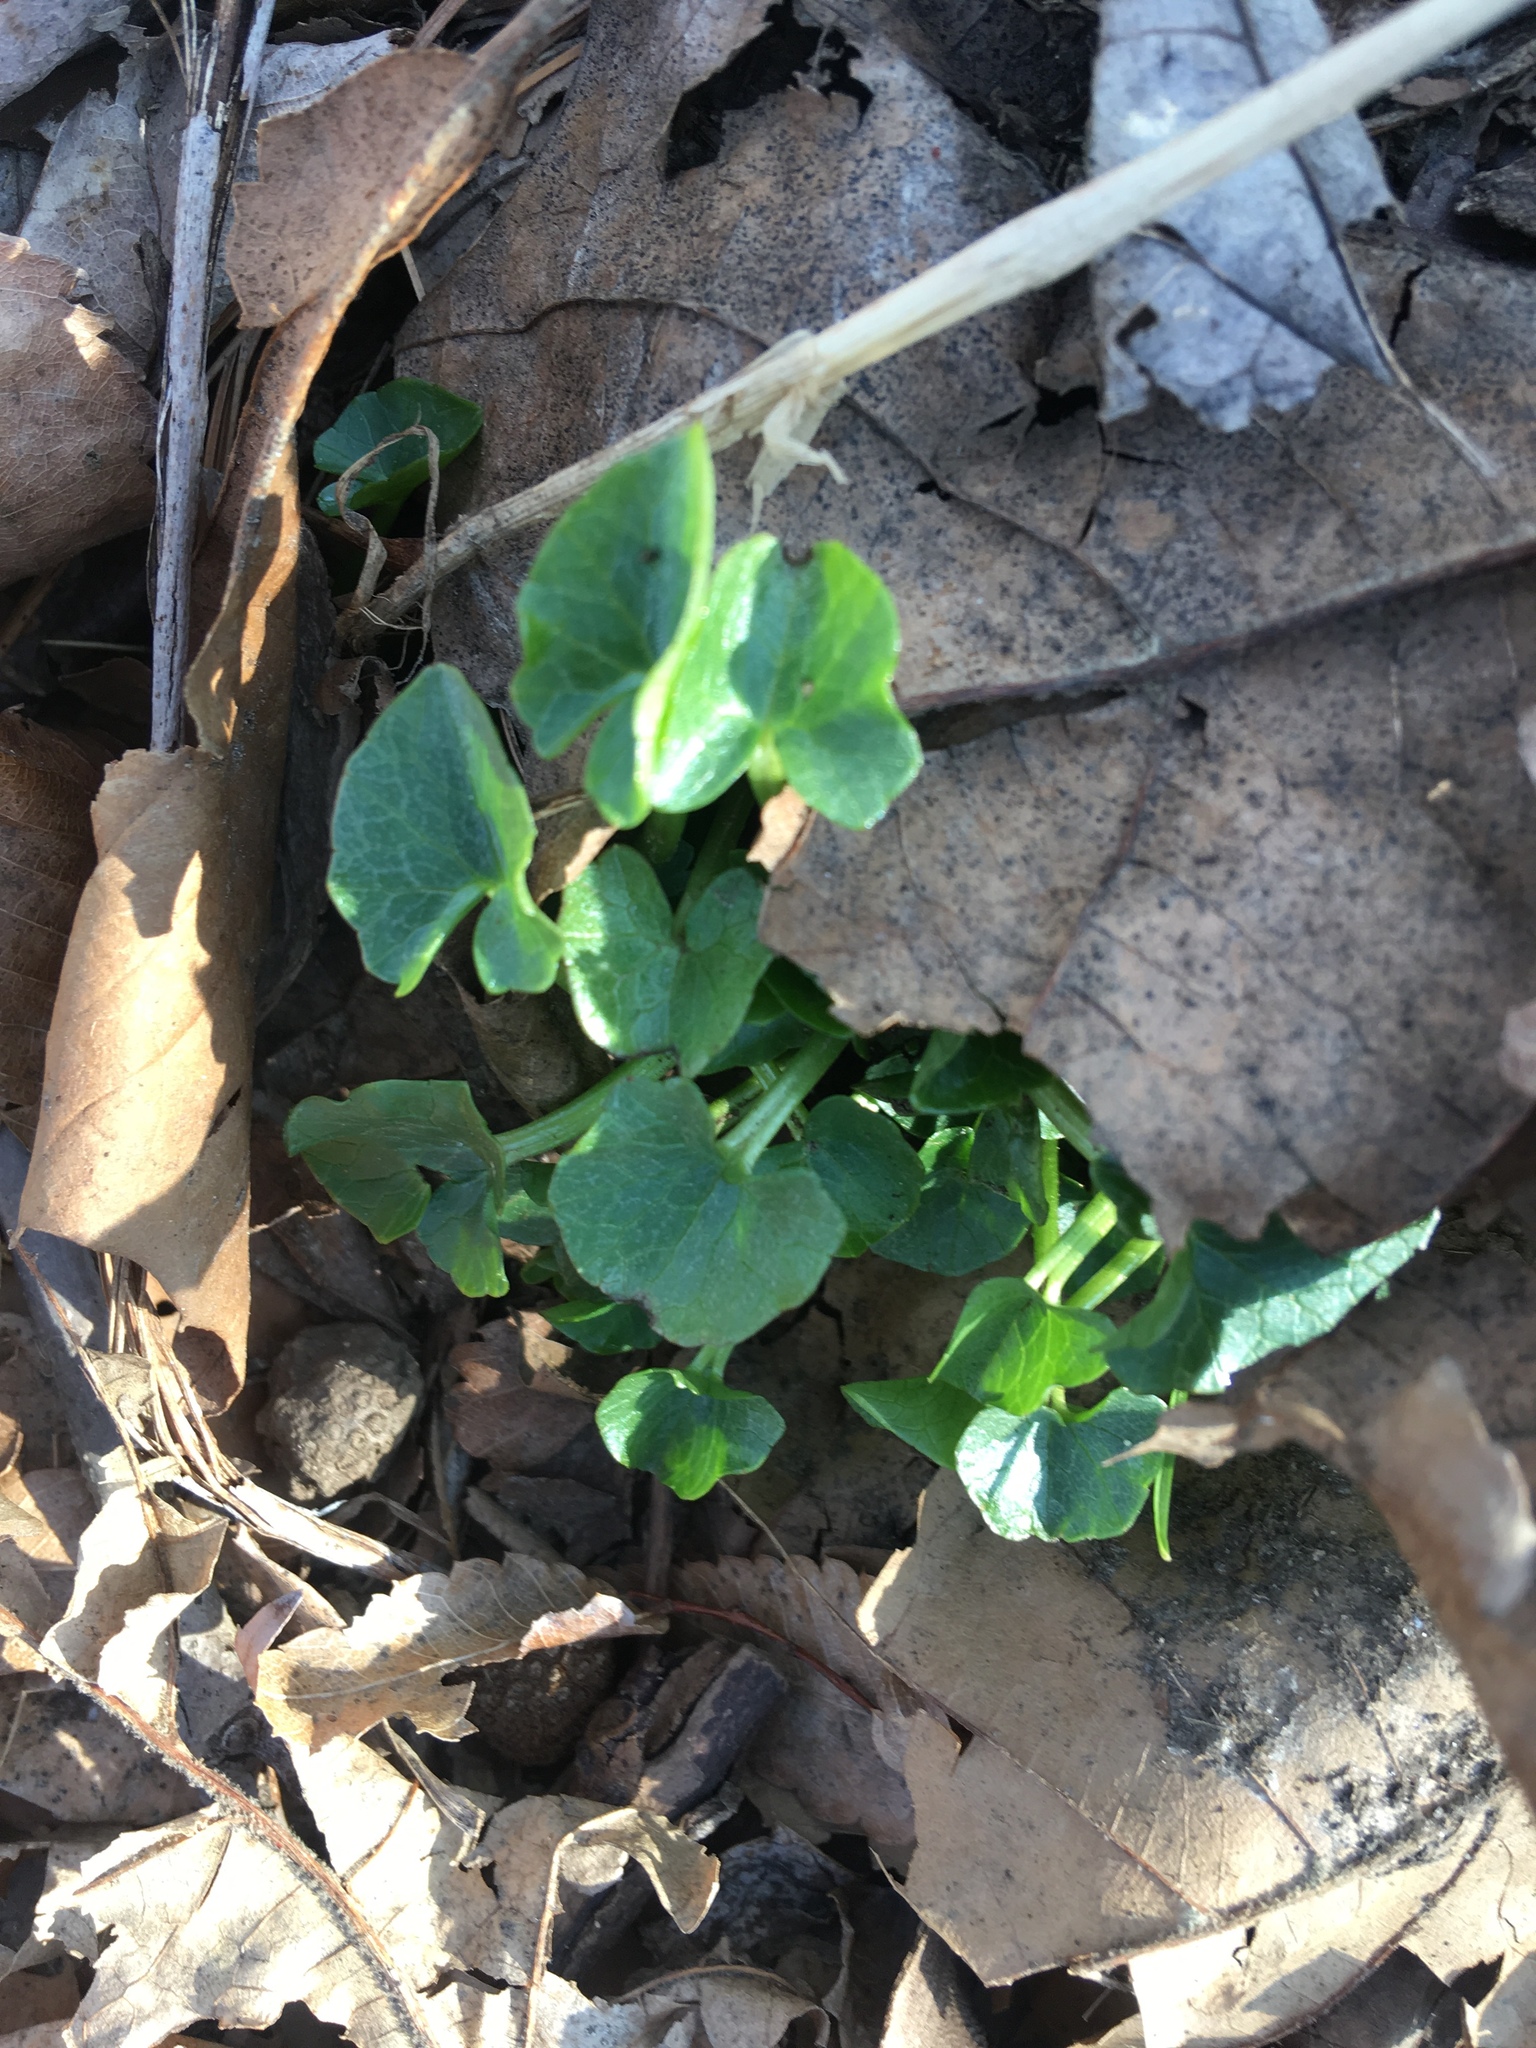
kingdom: Plantae
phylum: Tracheophyta
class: Magnoliopsida
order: Ranunculales
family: Ranunculaceae
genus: Ficaria
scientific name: Ficaria verna
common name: Lesser celandine
